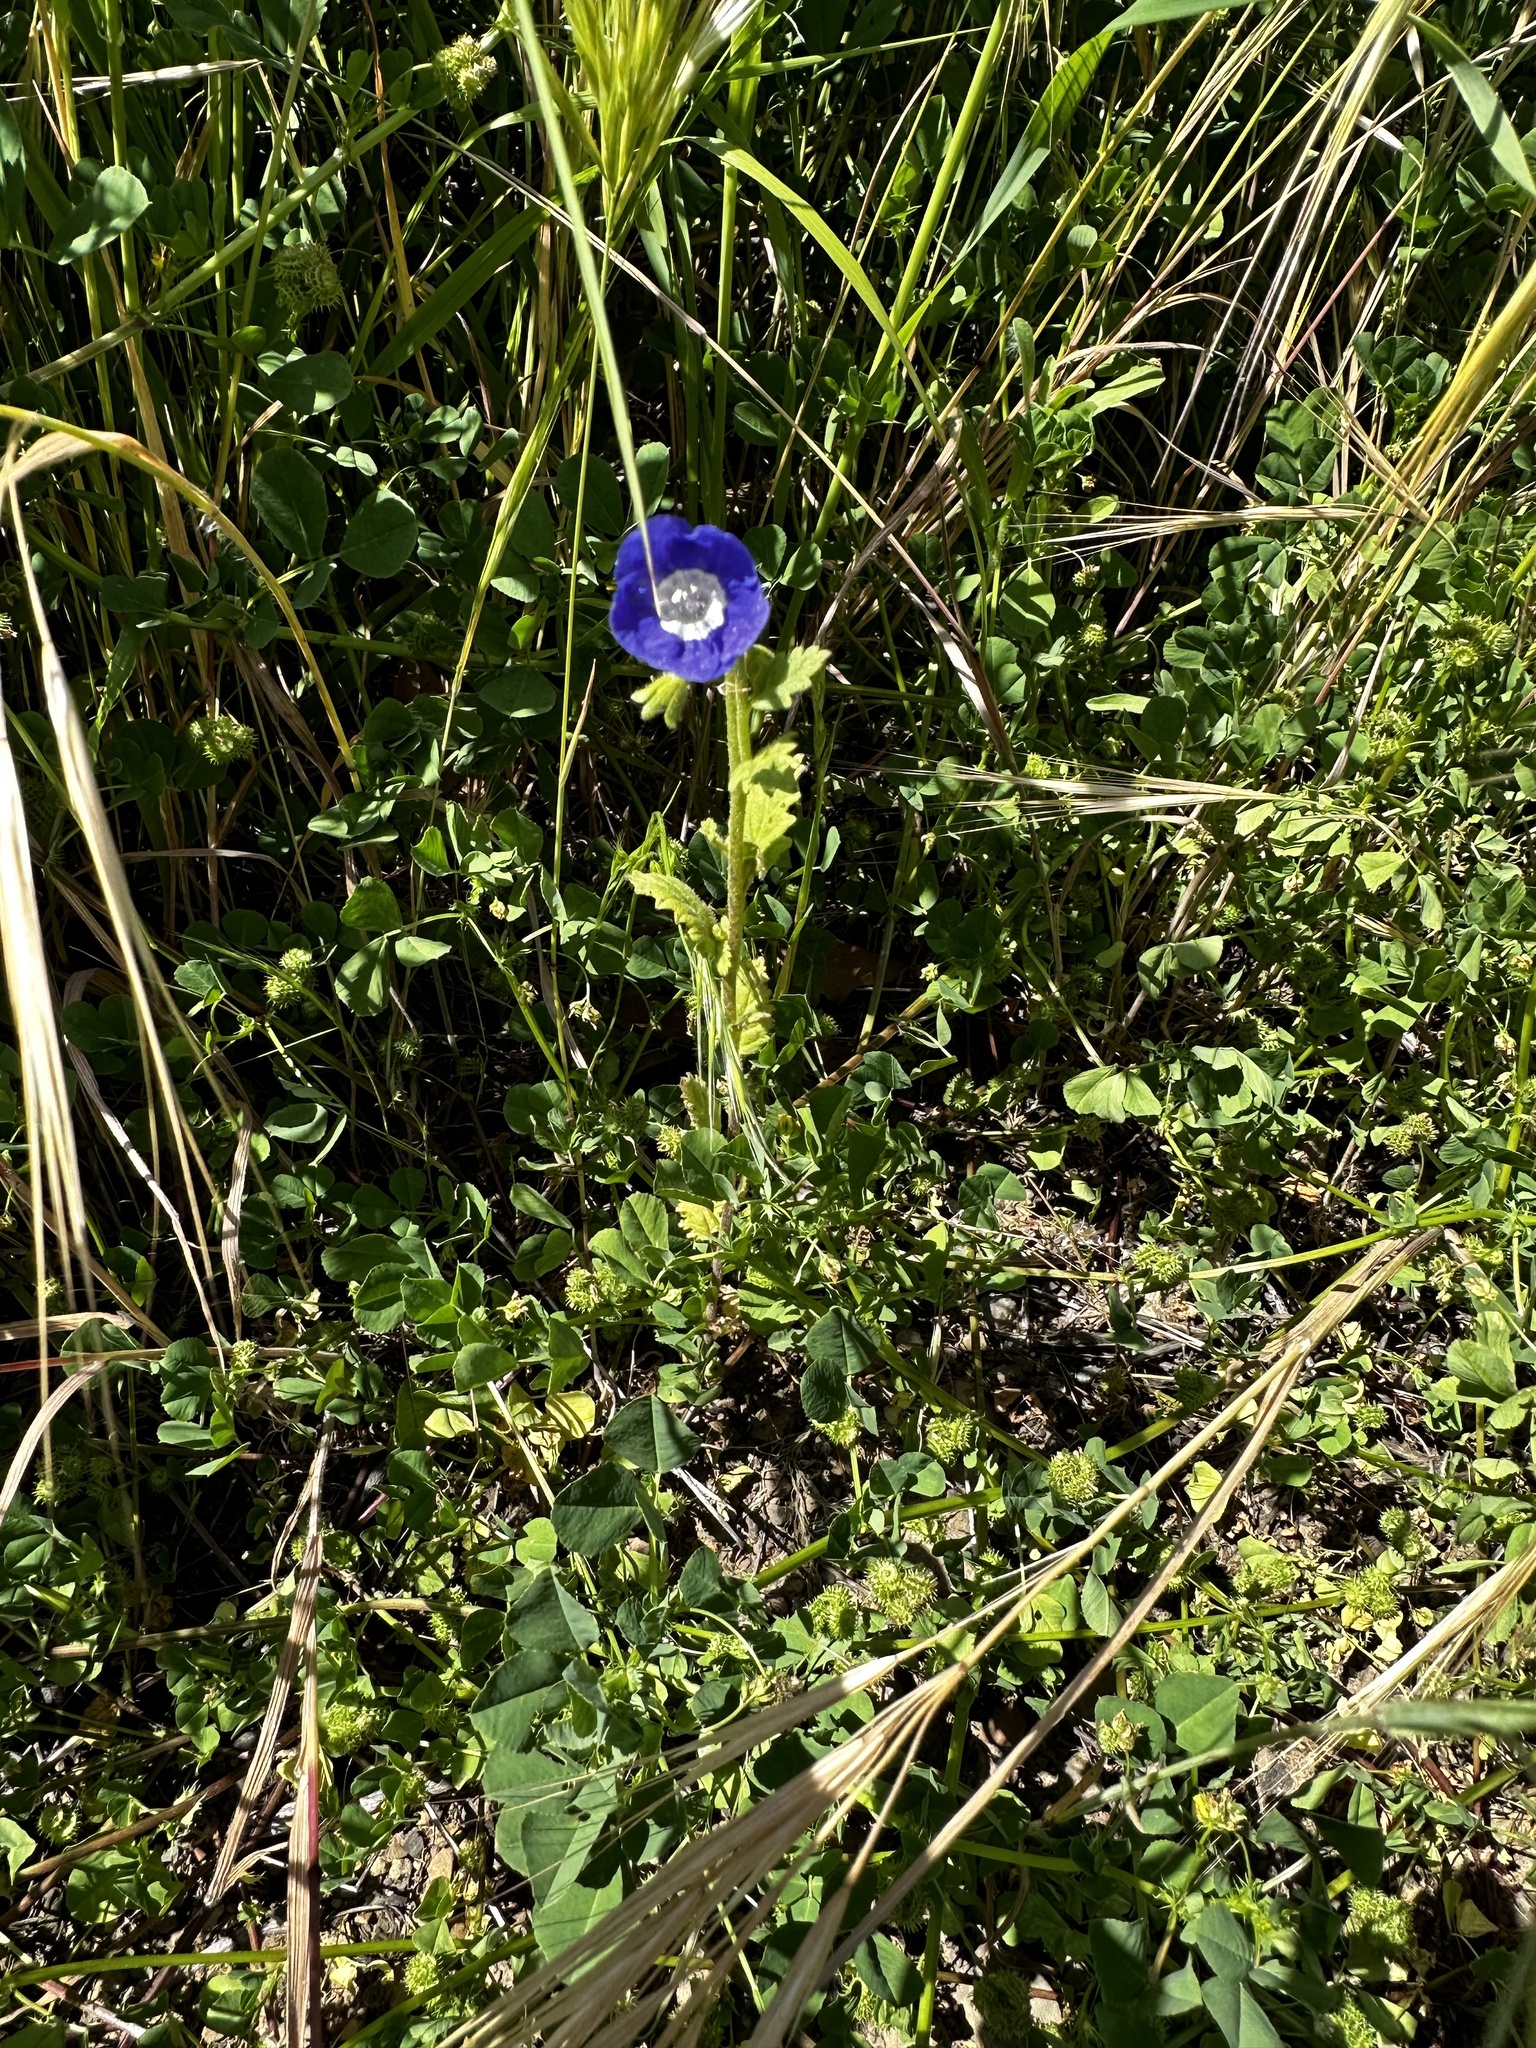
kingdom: Plantae
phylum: Tracheophyta
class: Magnoliopsida
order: Boraginales
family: Hydrophyllaceae
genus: Phacelia
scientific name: Phacelia viscida
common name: Sticky phacelia
